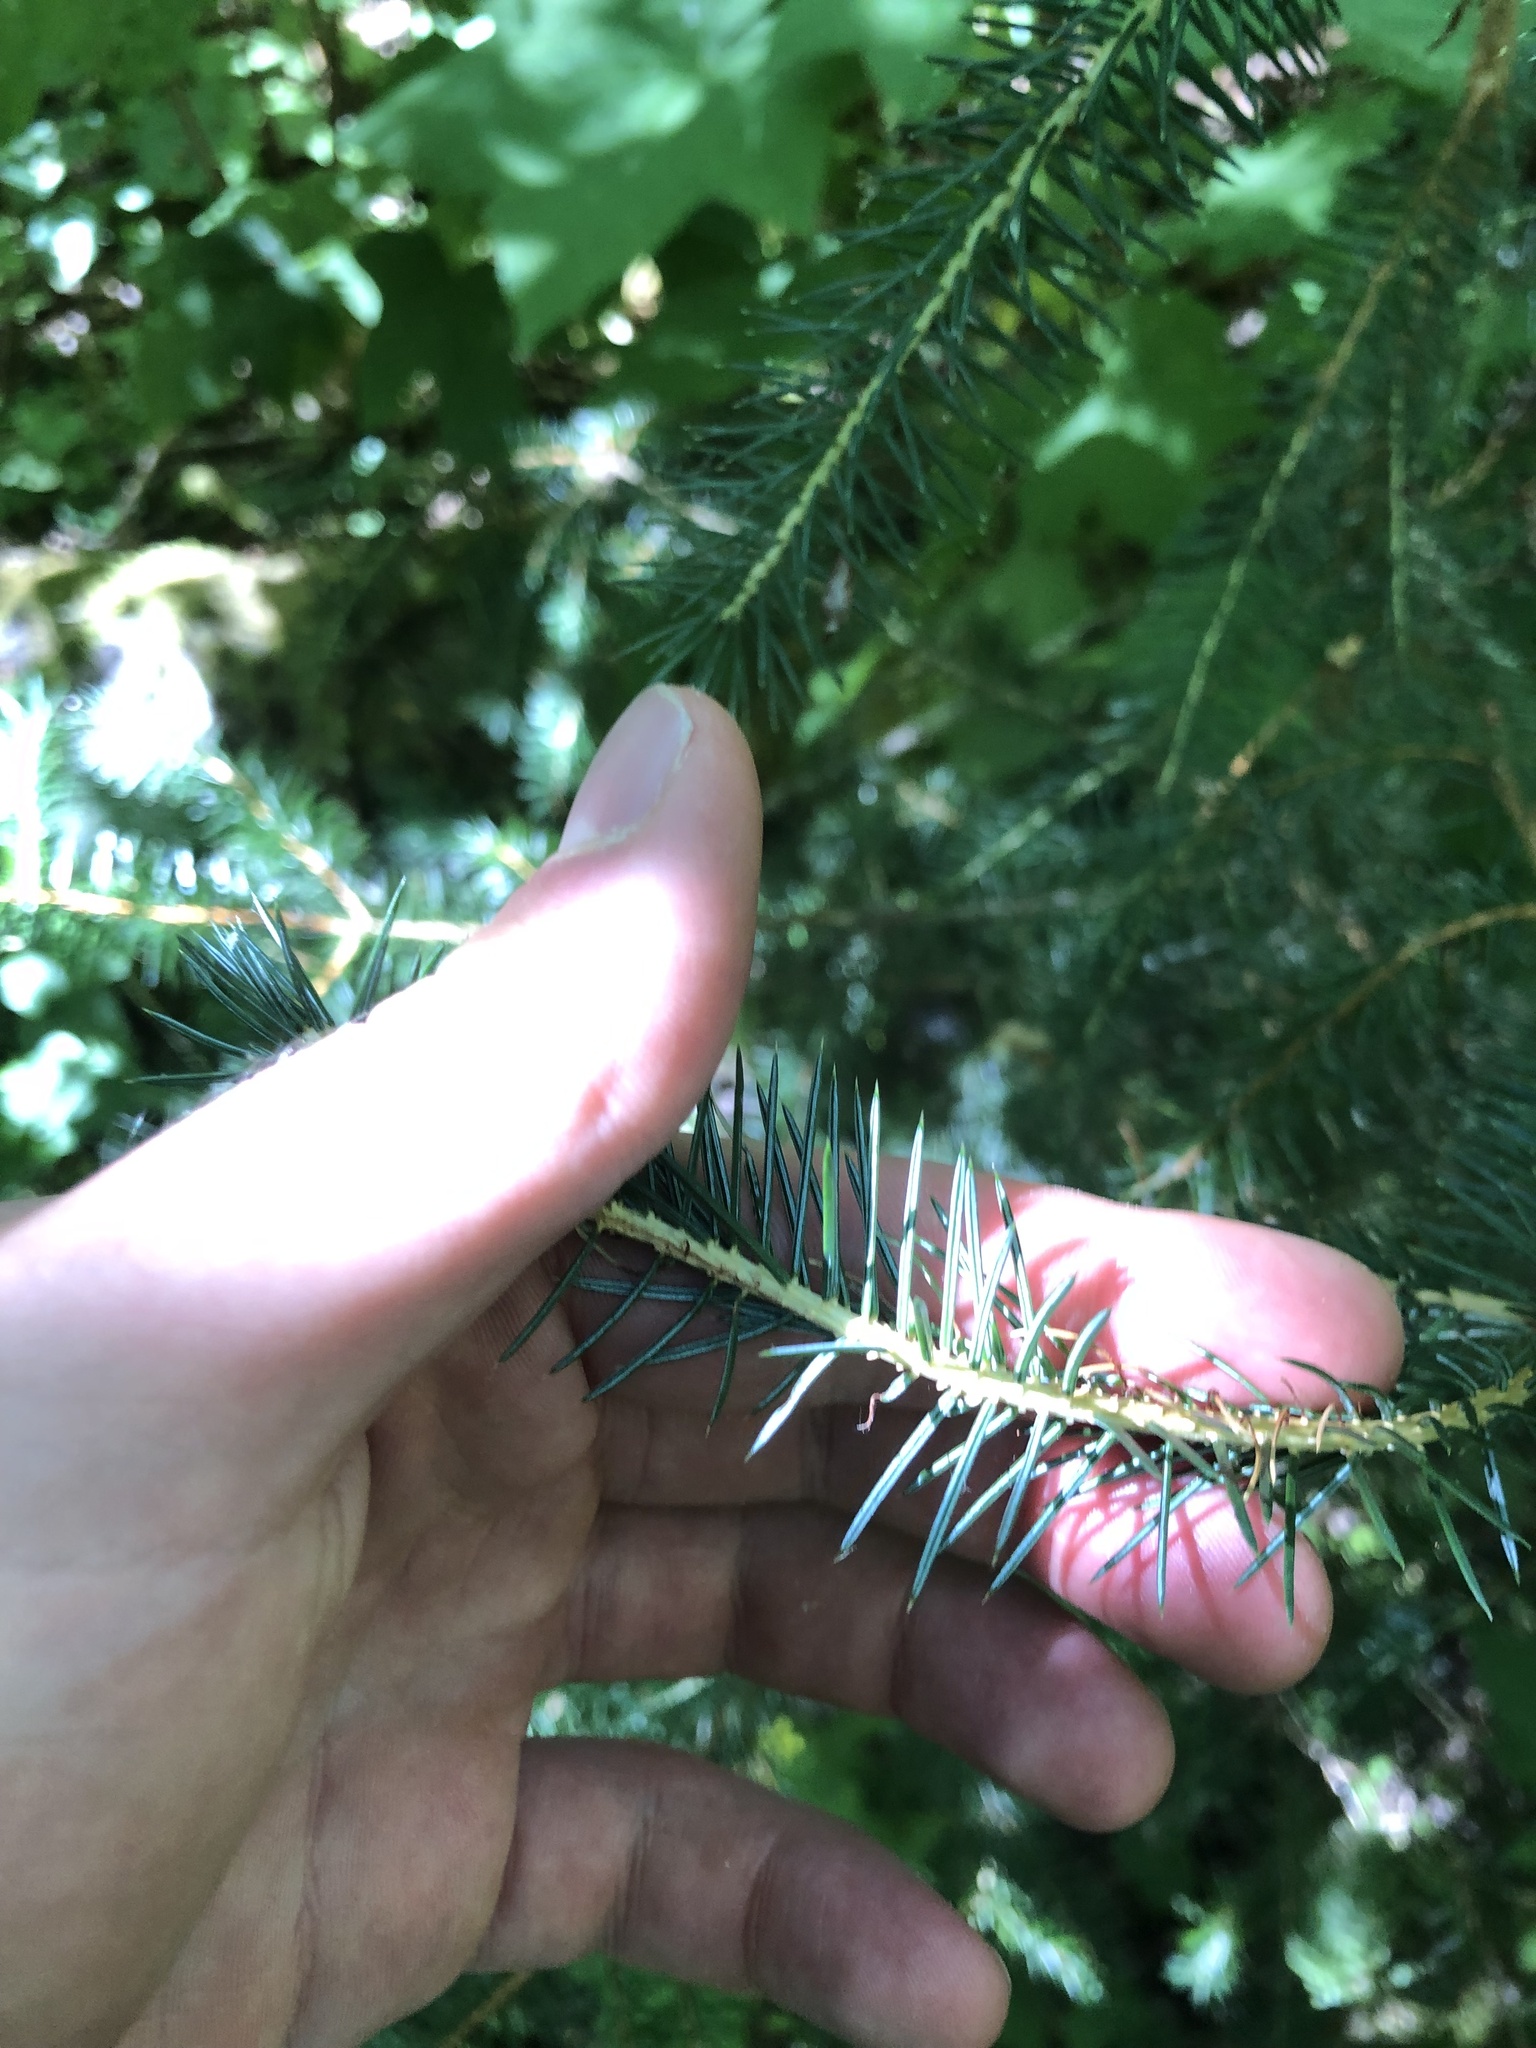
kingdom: Plantae
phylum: Tracheophyta
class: Pinopsida
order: Pinales
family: Pinaceae
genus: Picea
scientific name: Picea sitchensis
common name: Sitka spruce
